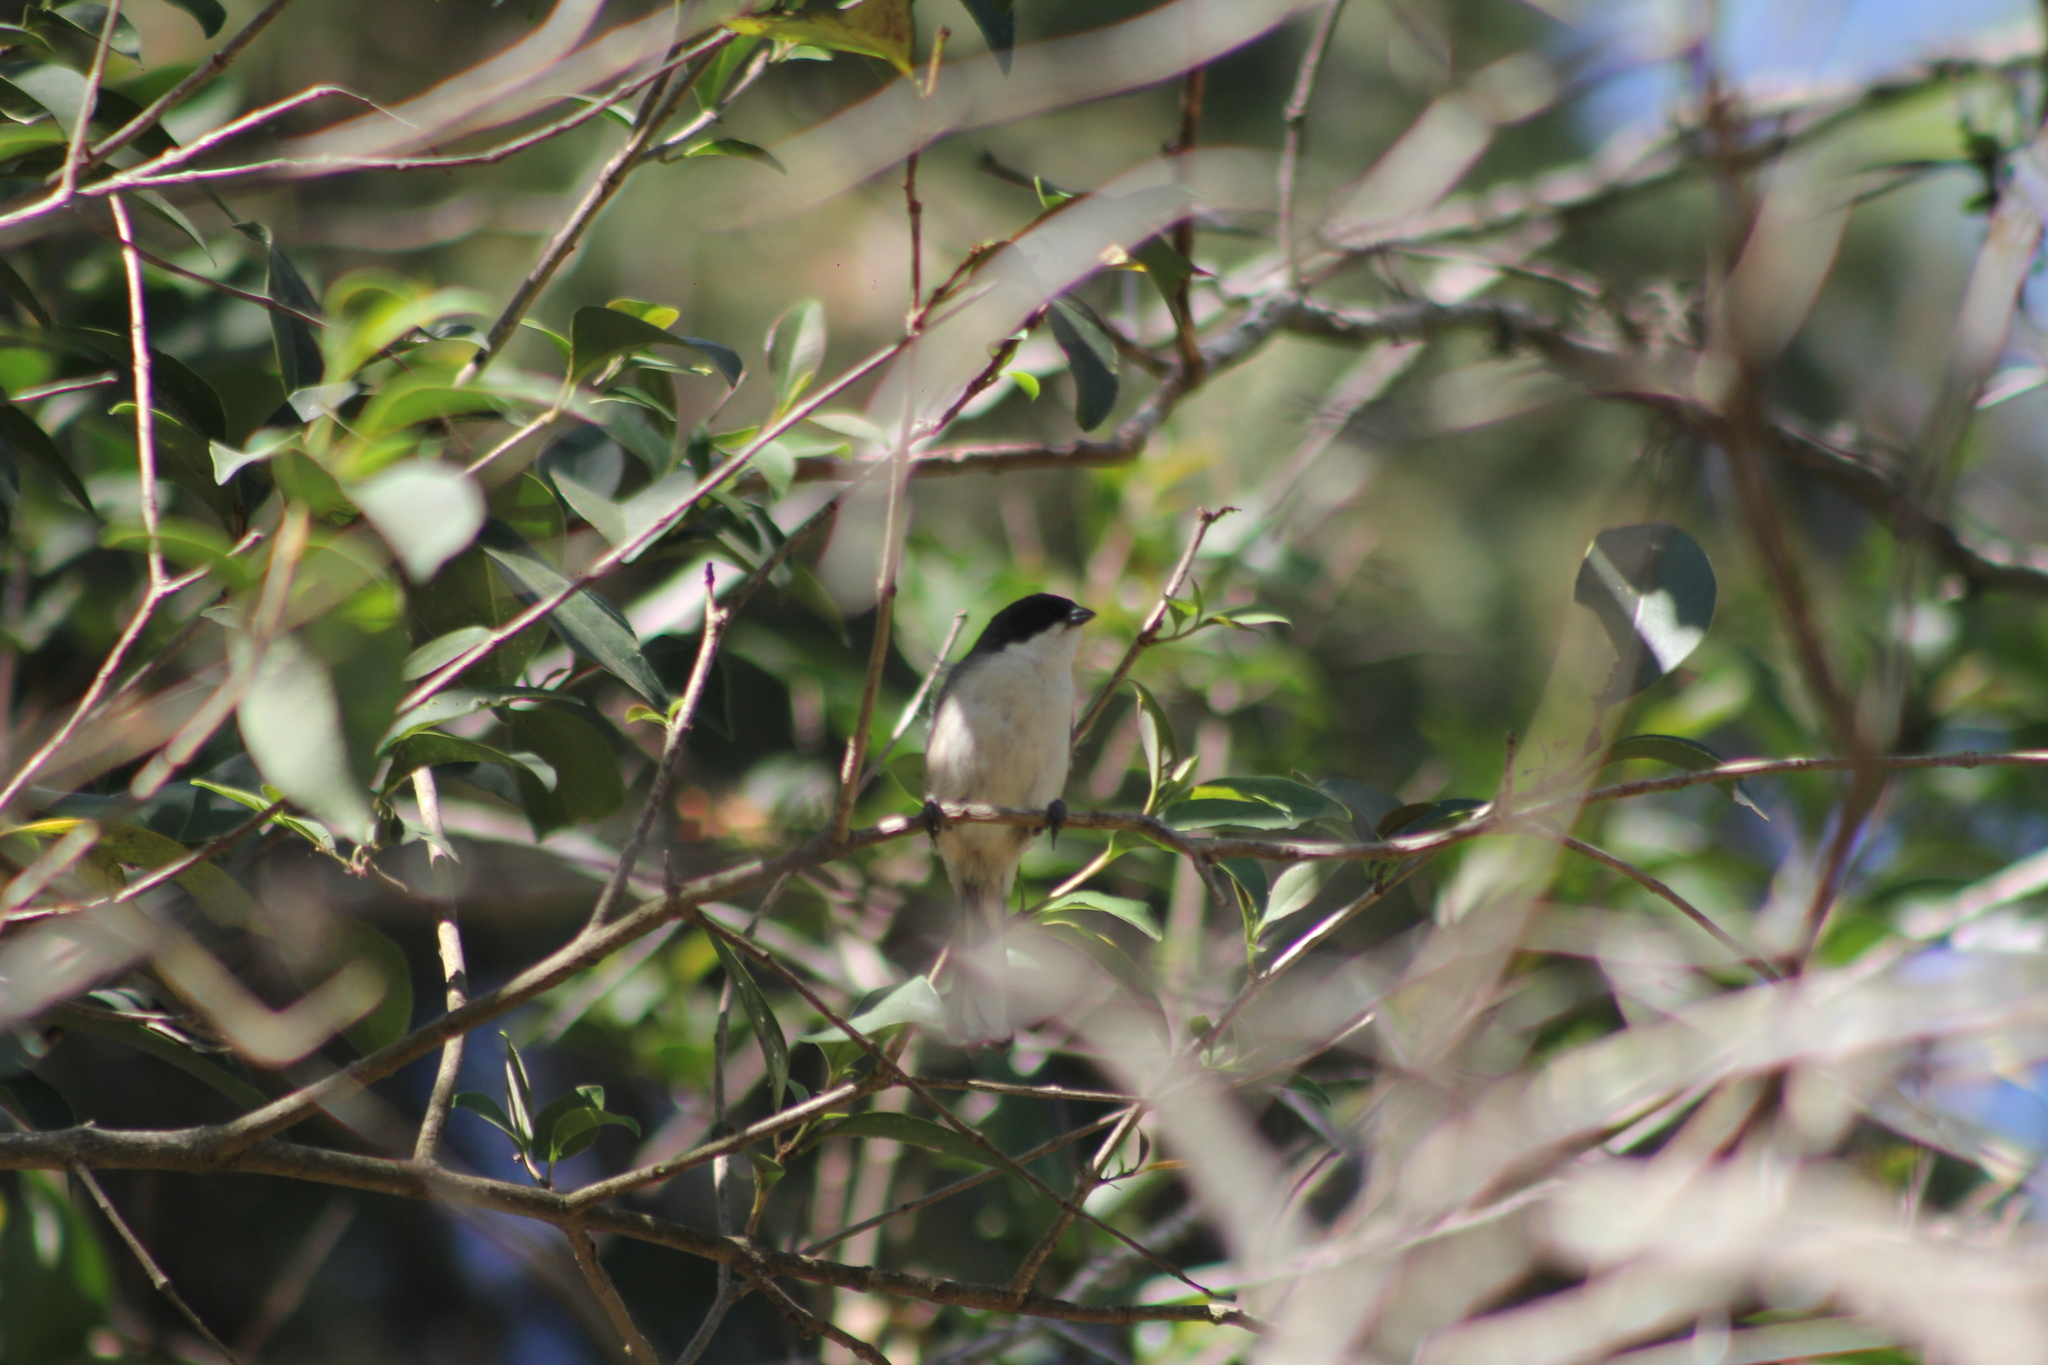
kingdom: Animalia
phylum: Chordata
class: Aves
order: Passeriformes
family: Thraupidae
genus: Microspingus
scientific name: Microspingus melanoleucus
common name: Black-capped warbling-finch
